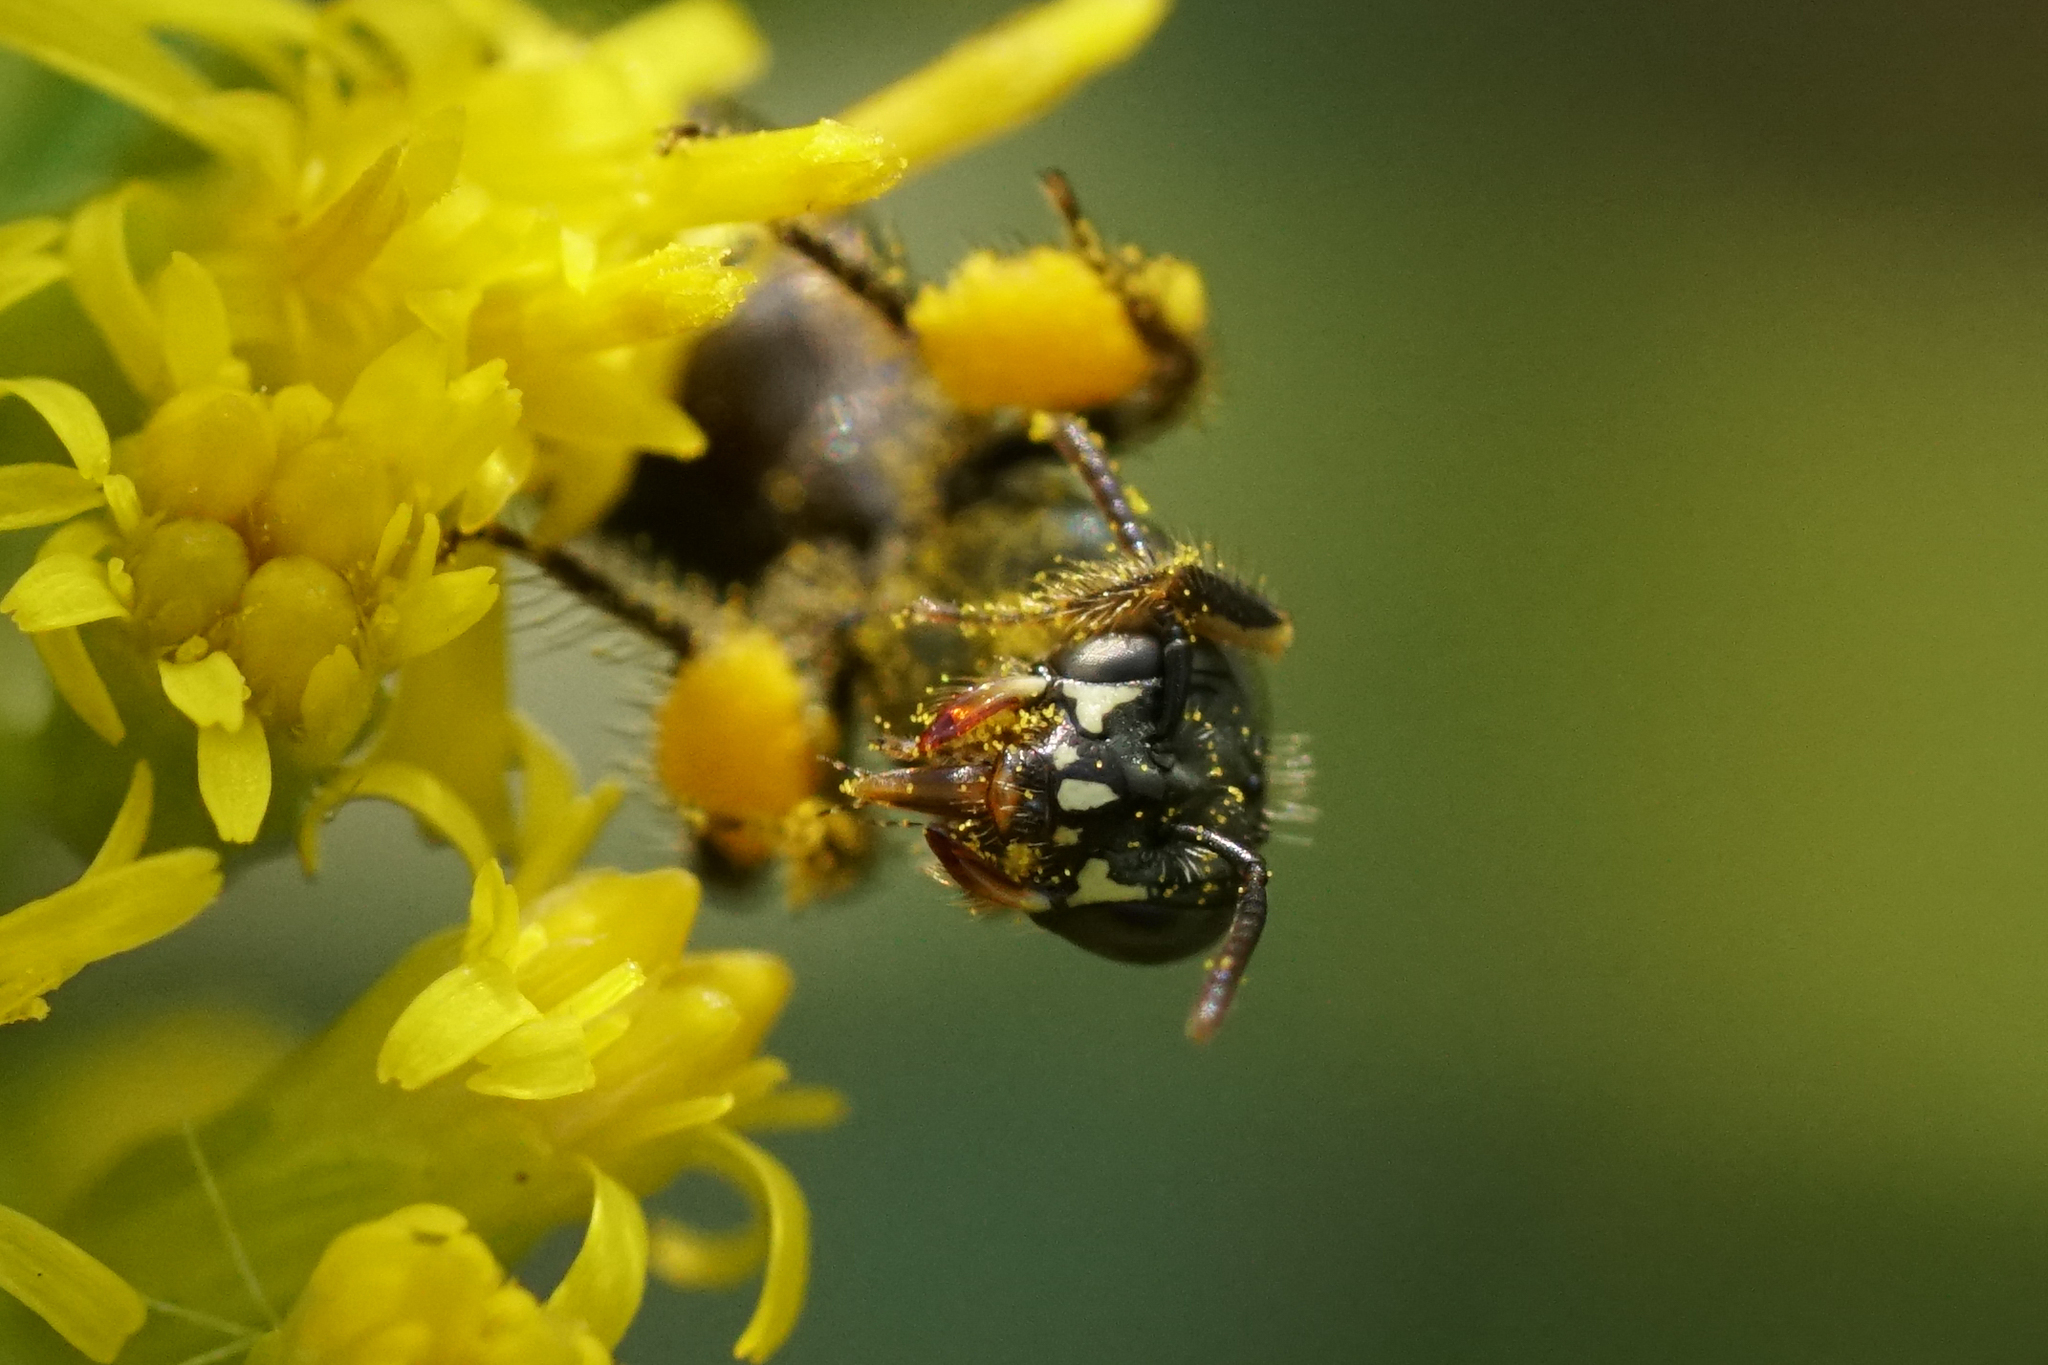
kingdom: Animalia
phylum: Arthropoda
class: Insecta
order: Hymenoptera
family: Andrenidae
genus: Perdita
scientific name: Perdita octomaculata
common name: Eight-spotted miner bee
